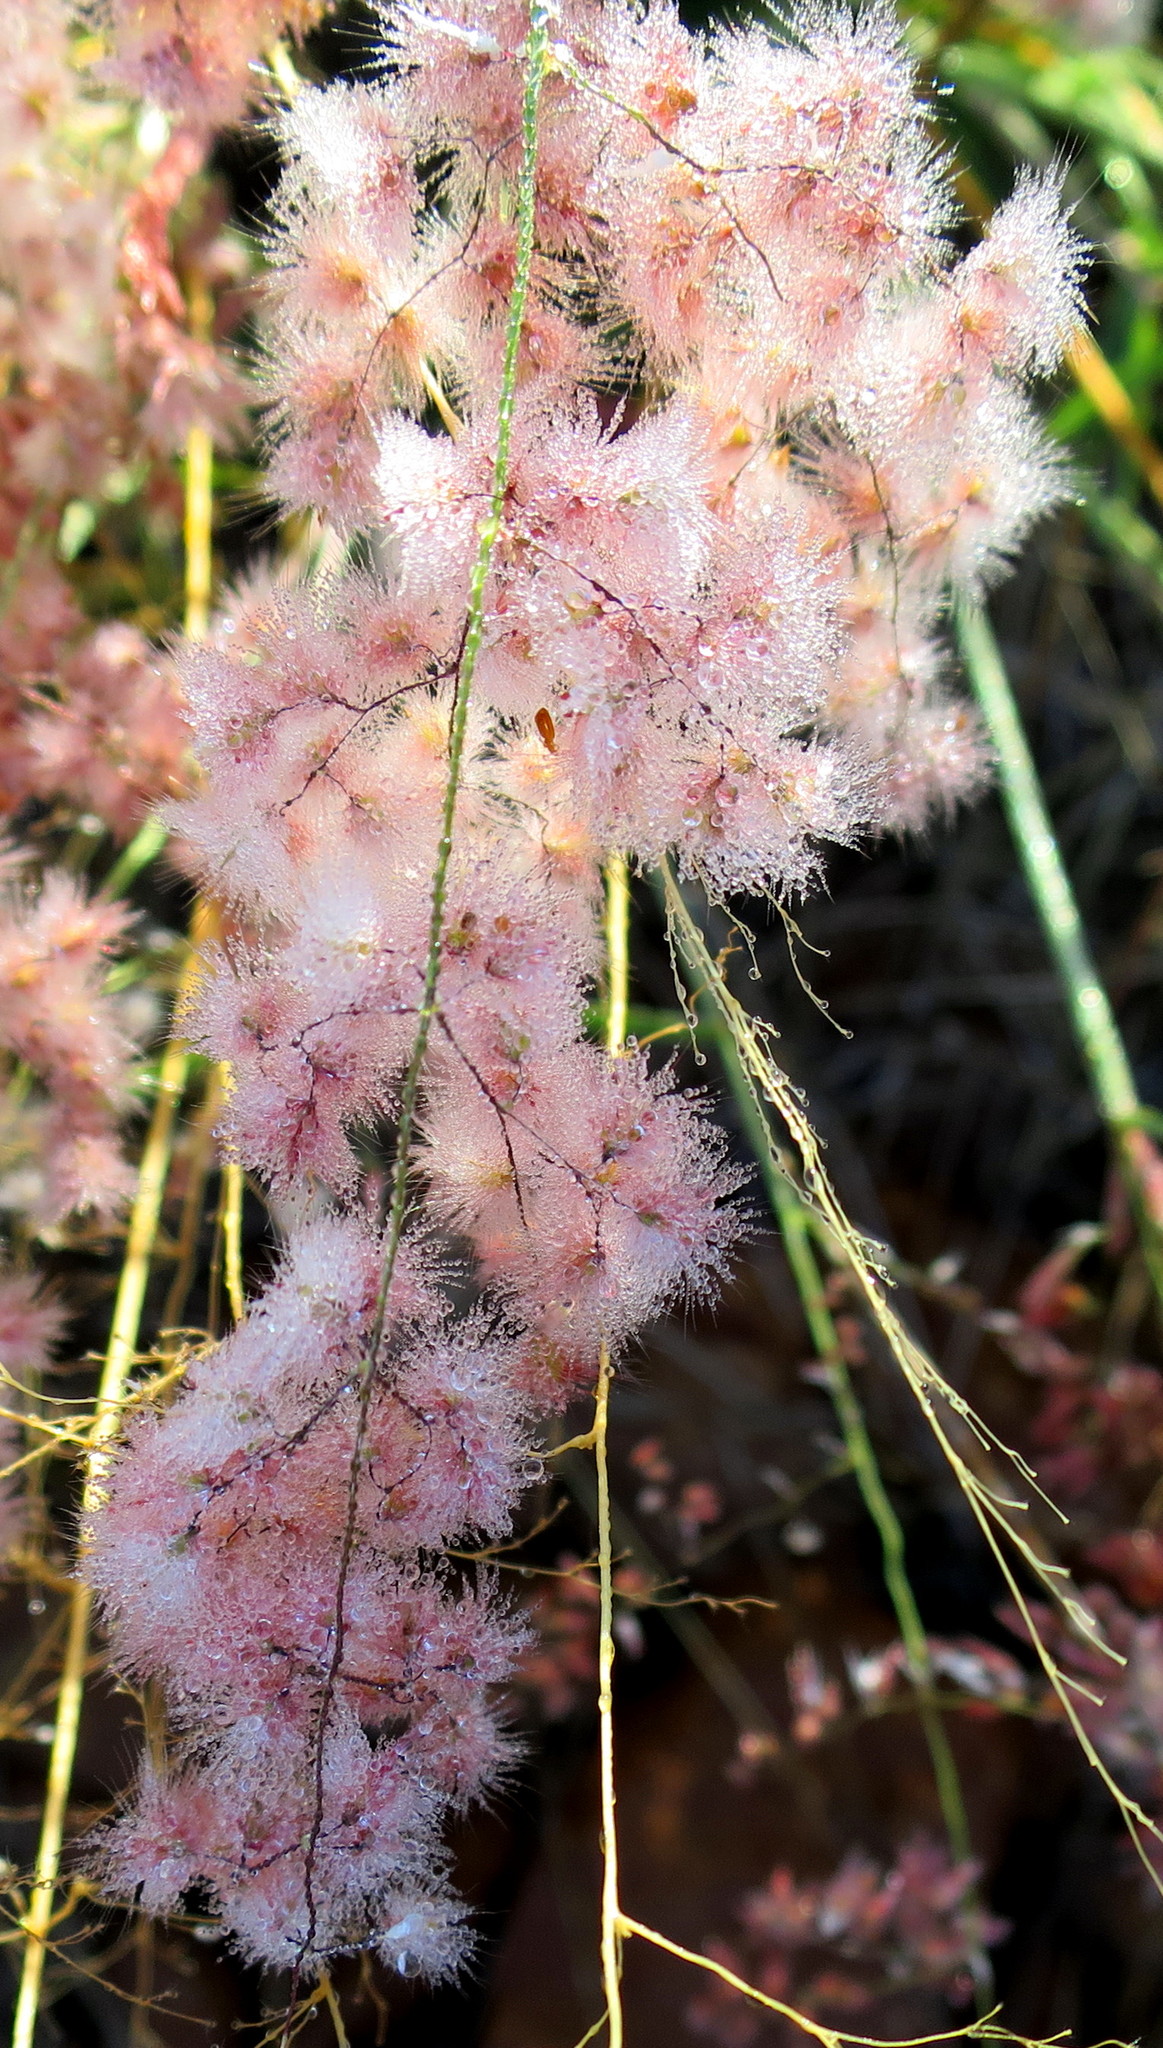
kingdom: Plantae
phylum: Tracheophyta
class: Liliopsida
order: Poales
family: Poaceae
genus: Melinis
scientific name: Melinis repens
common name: Rose natal grass
